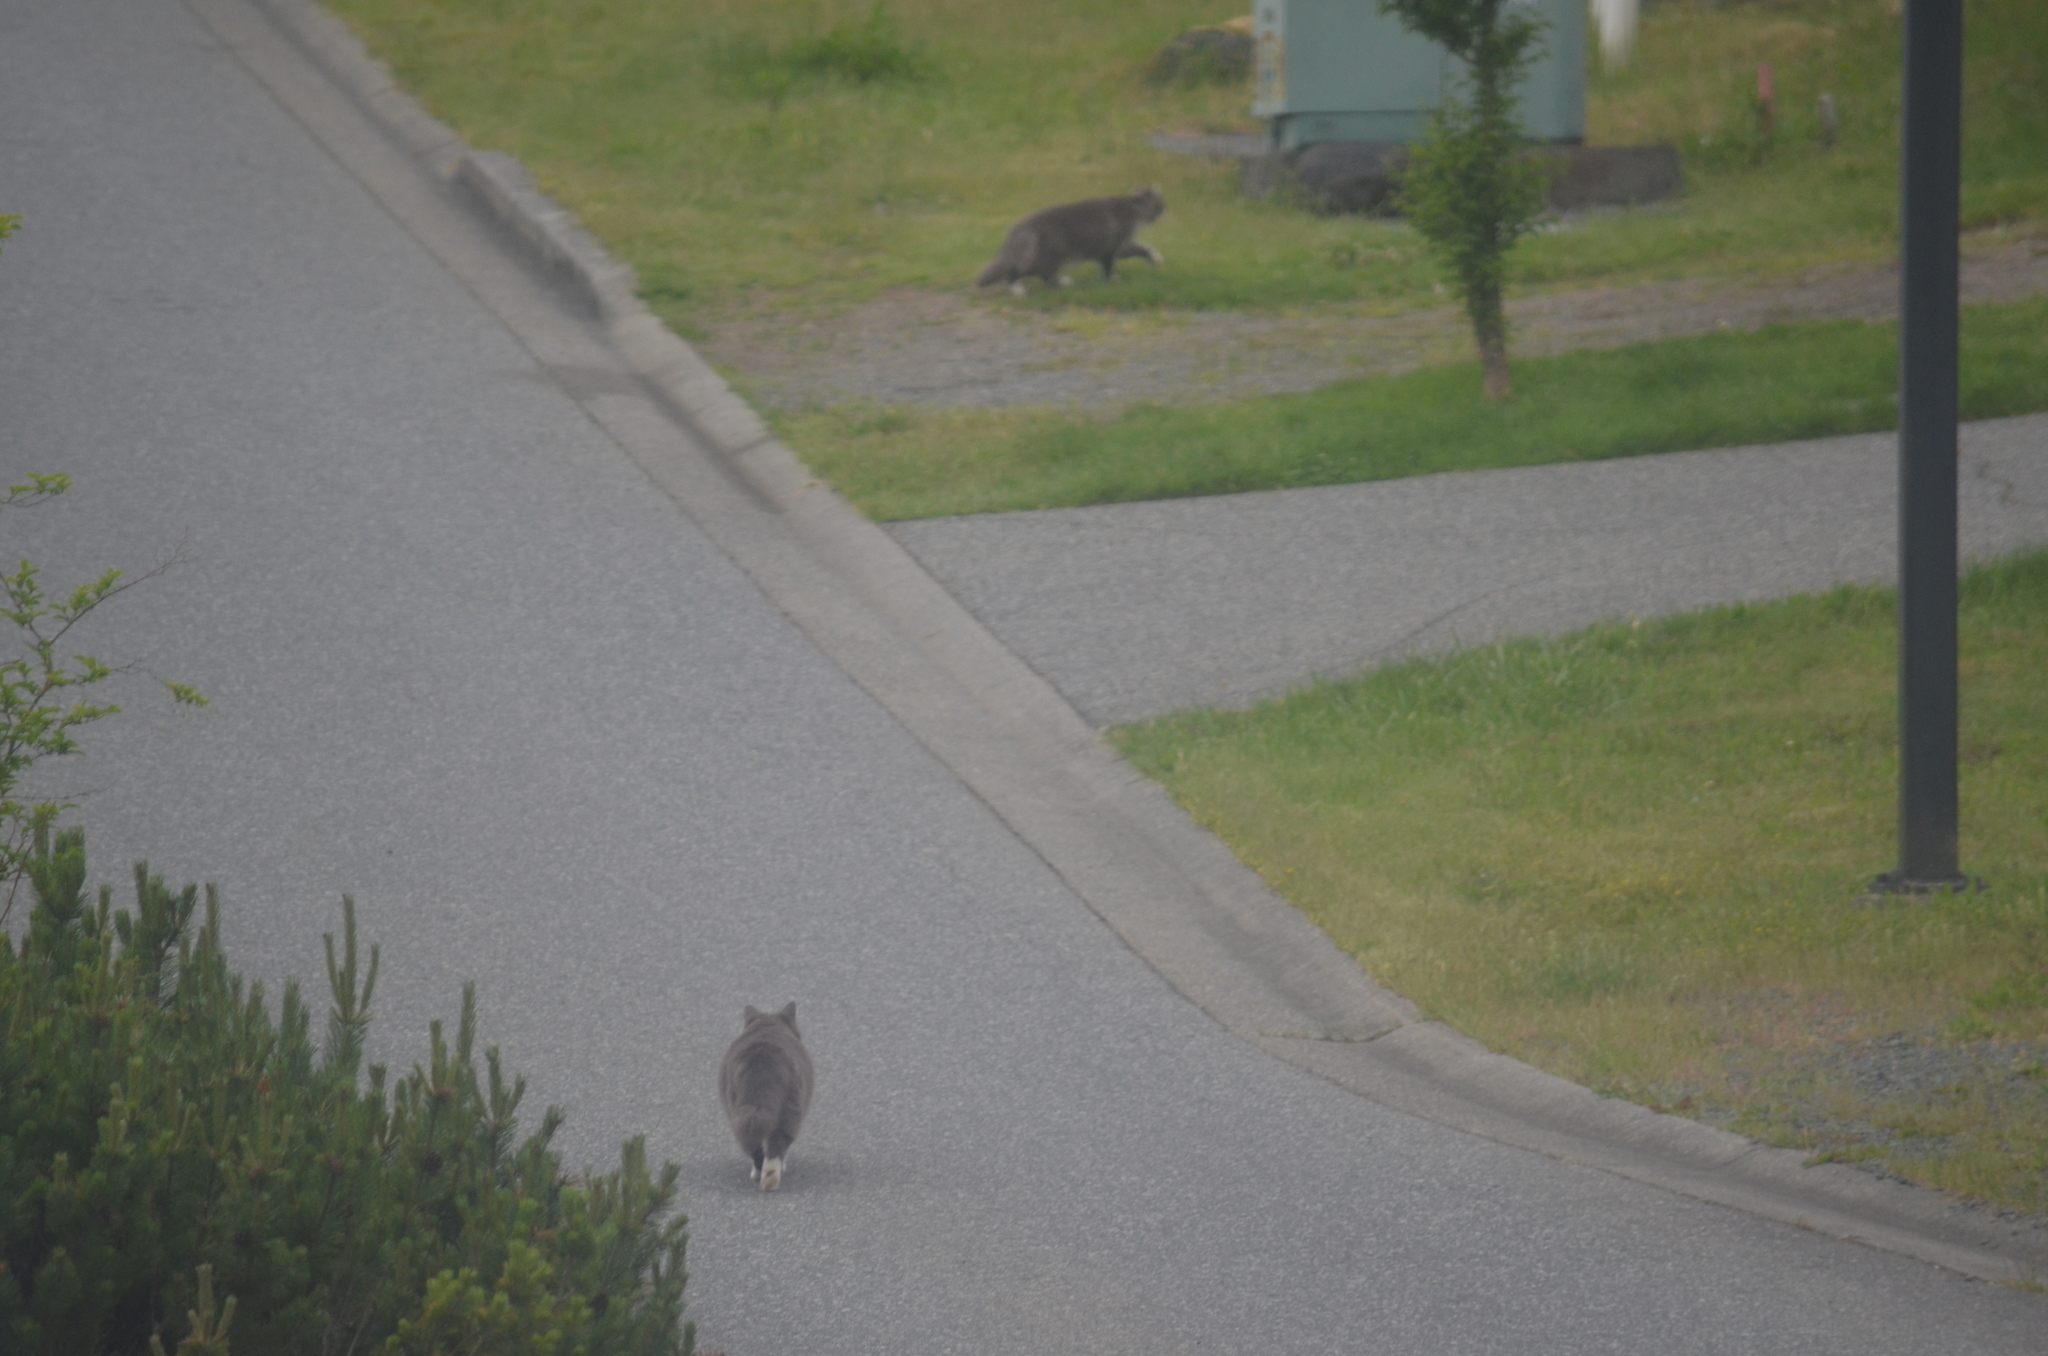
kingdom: Animalia
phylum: Chordata
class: Mammalia
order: Carnivora
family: Felidae
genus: Felis
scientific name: Felis catus
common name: Domestic cat
